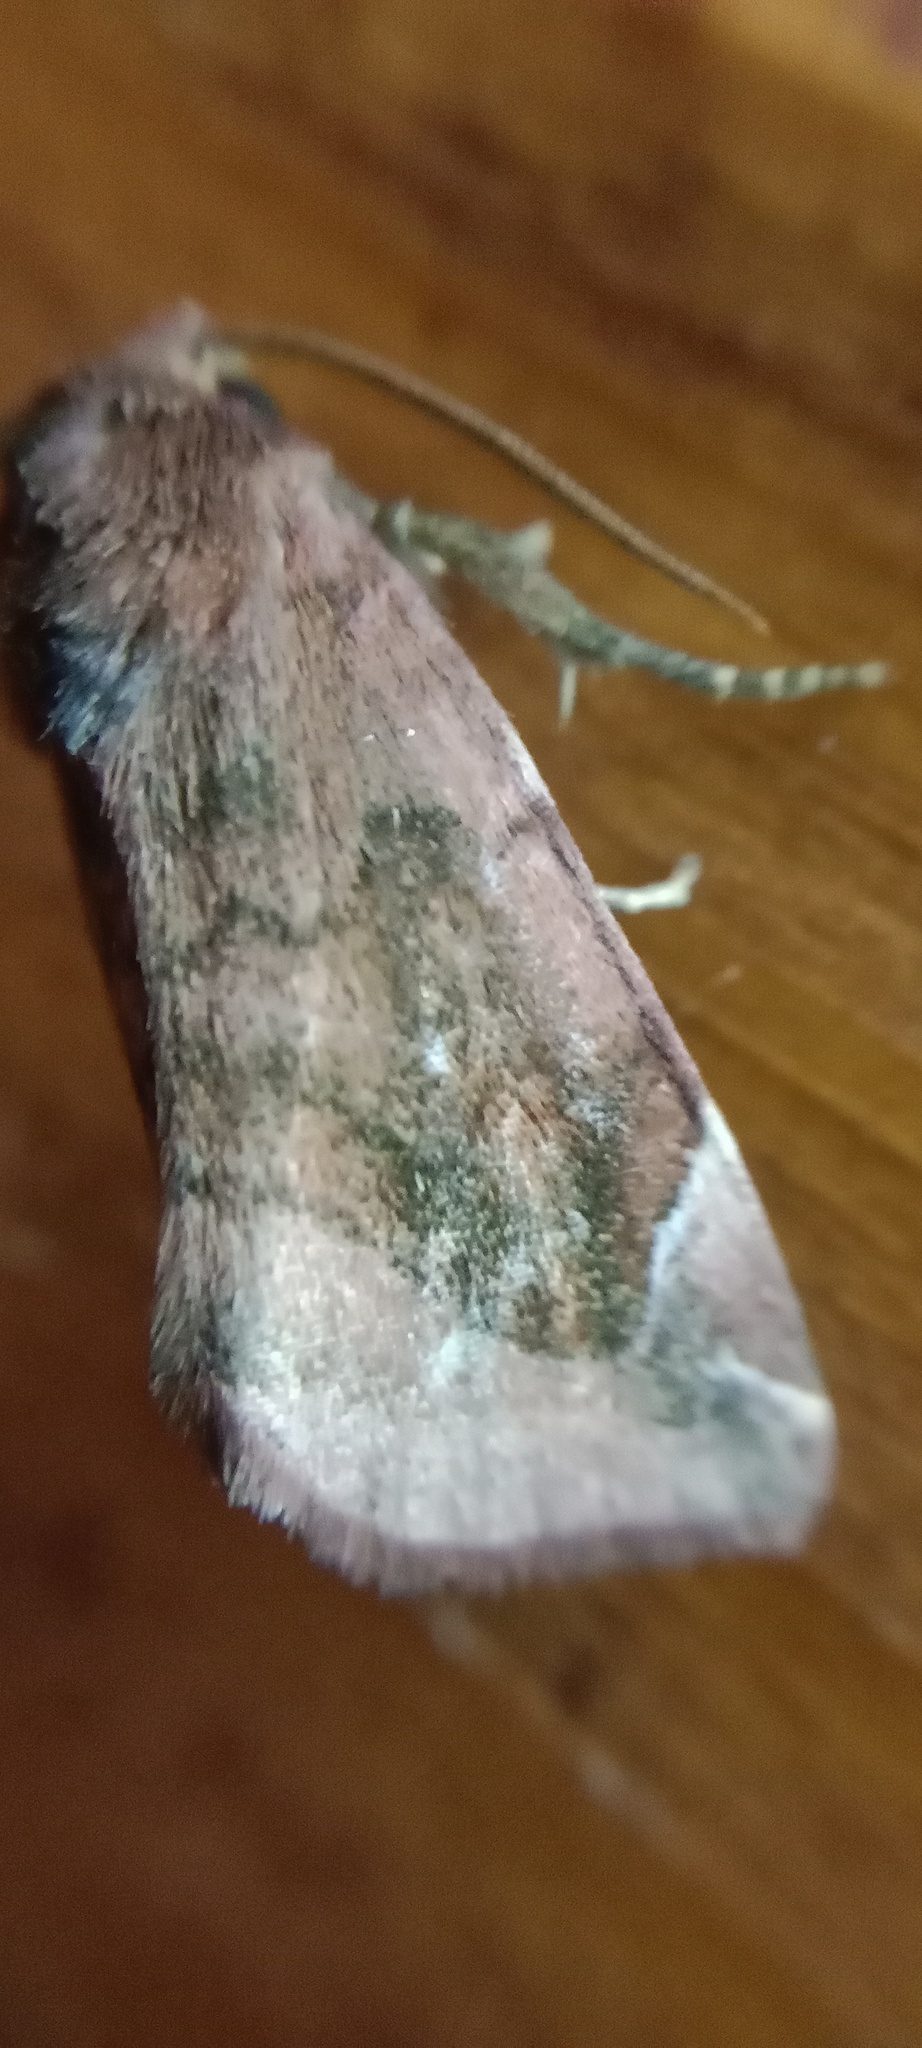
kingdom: Animalia
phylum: Arthropoda
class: Insecta
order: Lepidoptera
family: Noctuidae
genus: Cosmia
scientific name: Cosmia pyralina
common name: Lunar-spotted pinion
